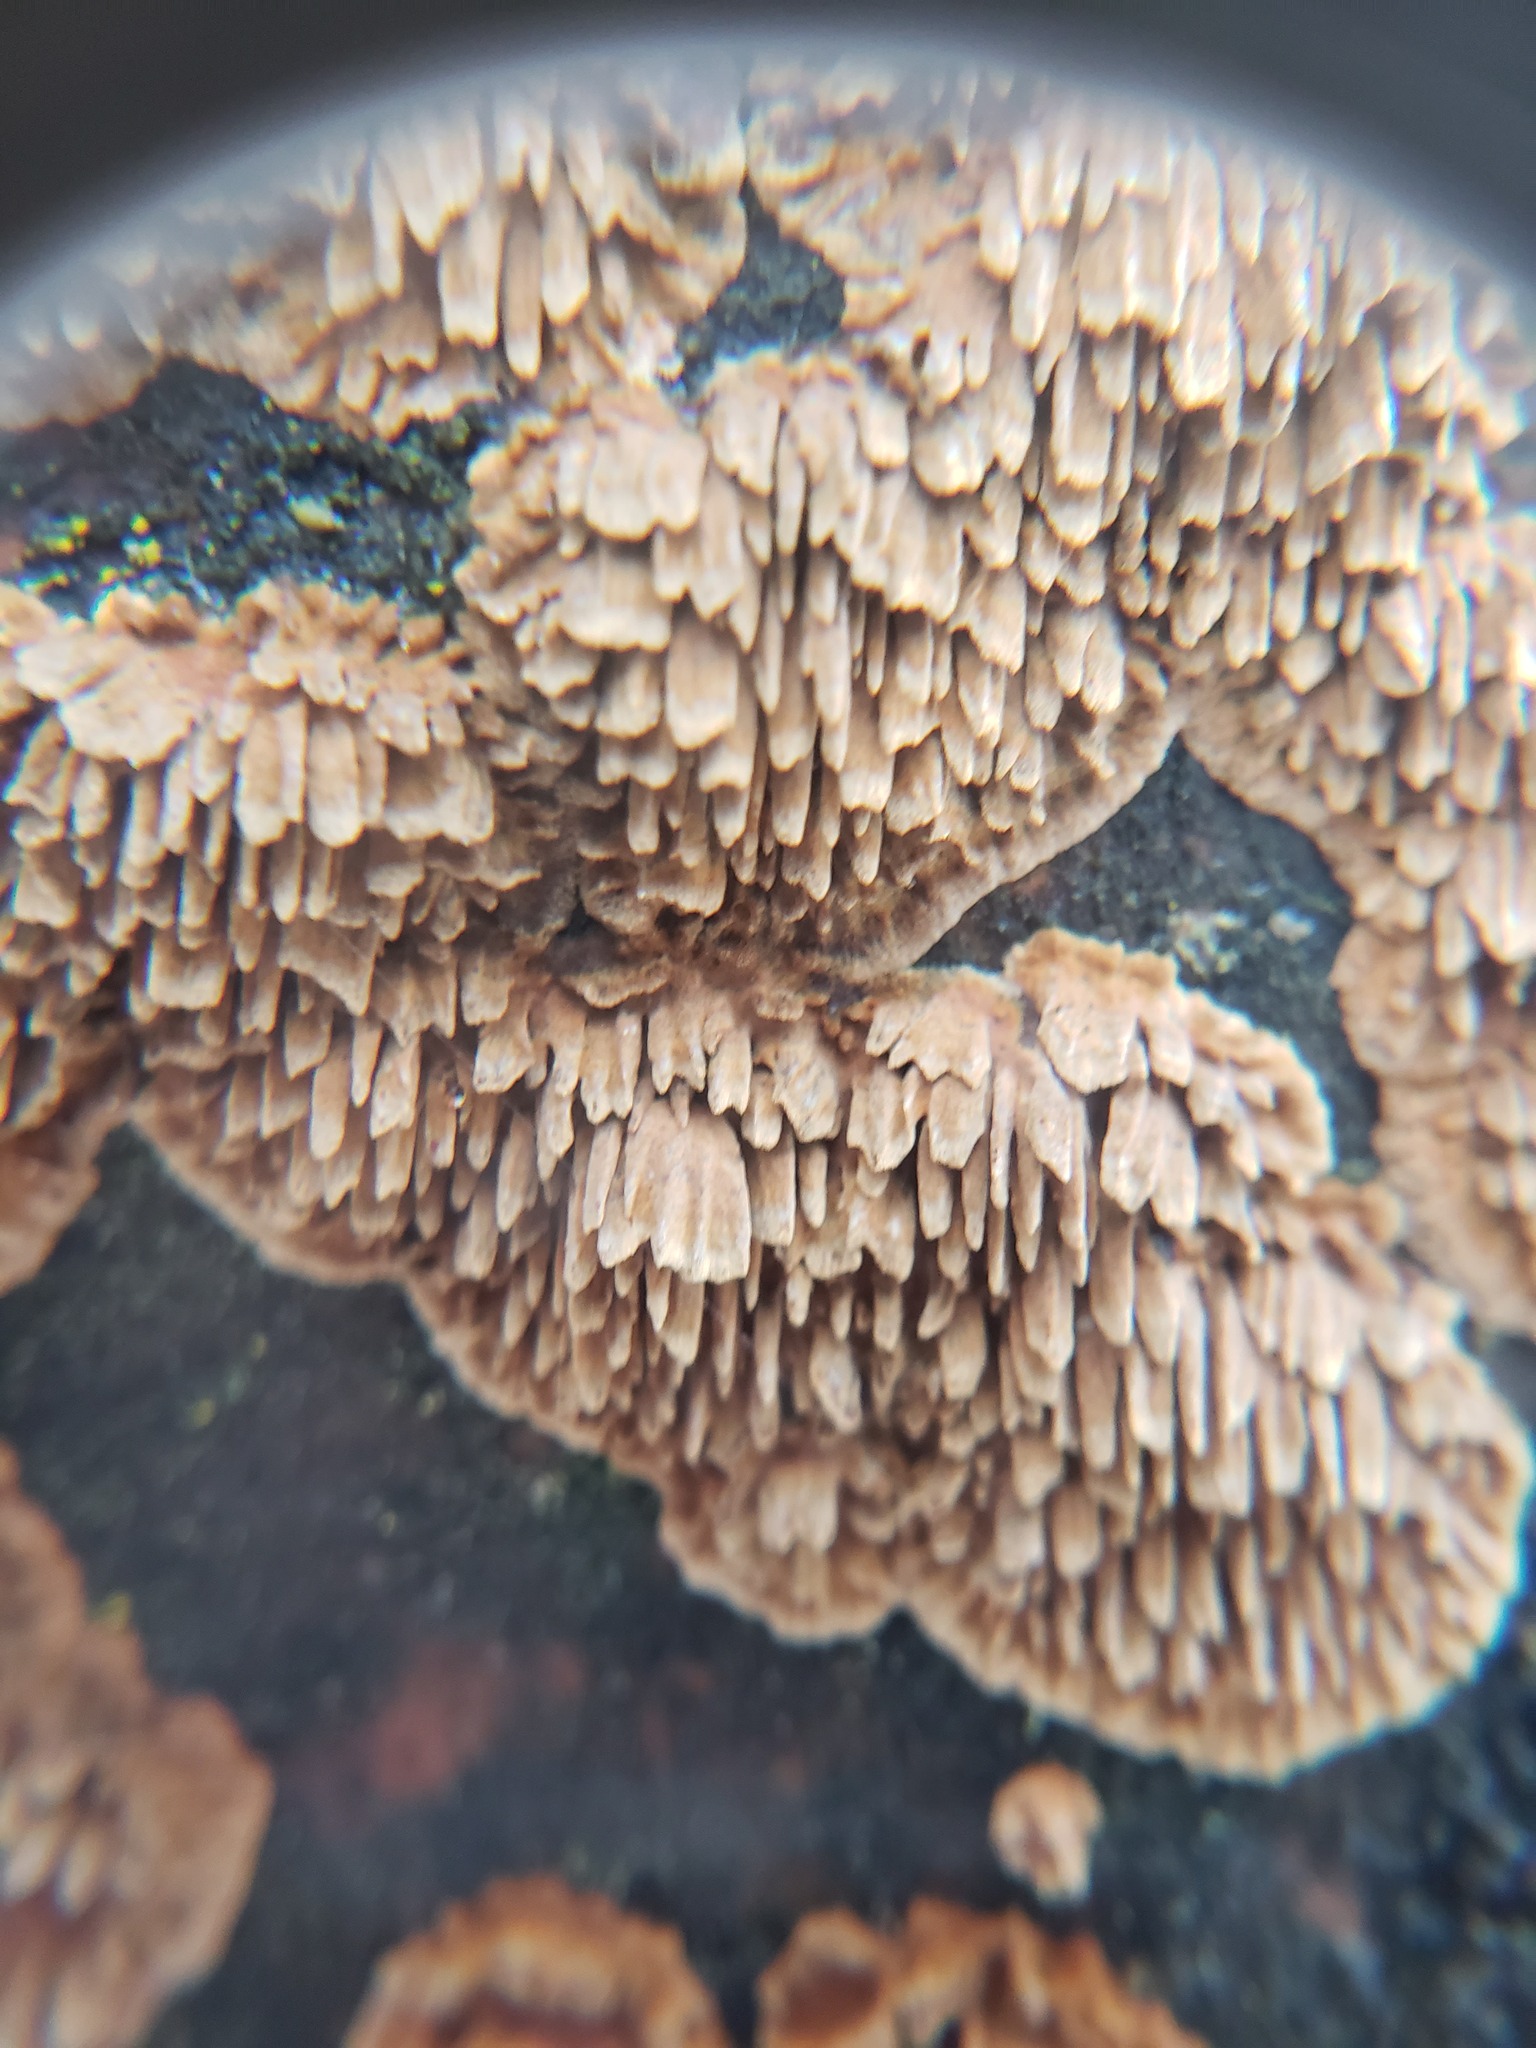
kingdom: Fungi
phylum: Basidiomycota
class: Agaricomycetes
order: Hymenochaetales
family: Hymenochaetaceae
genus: Hydnoporia
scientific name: Hydnoporia olivacea
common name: Brown-toothed crust fungus
